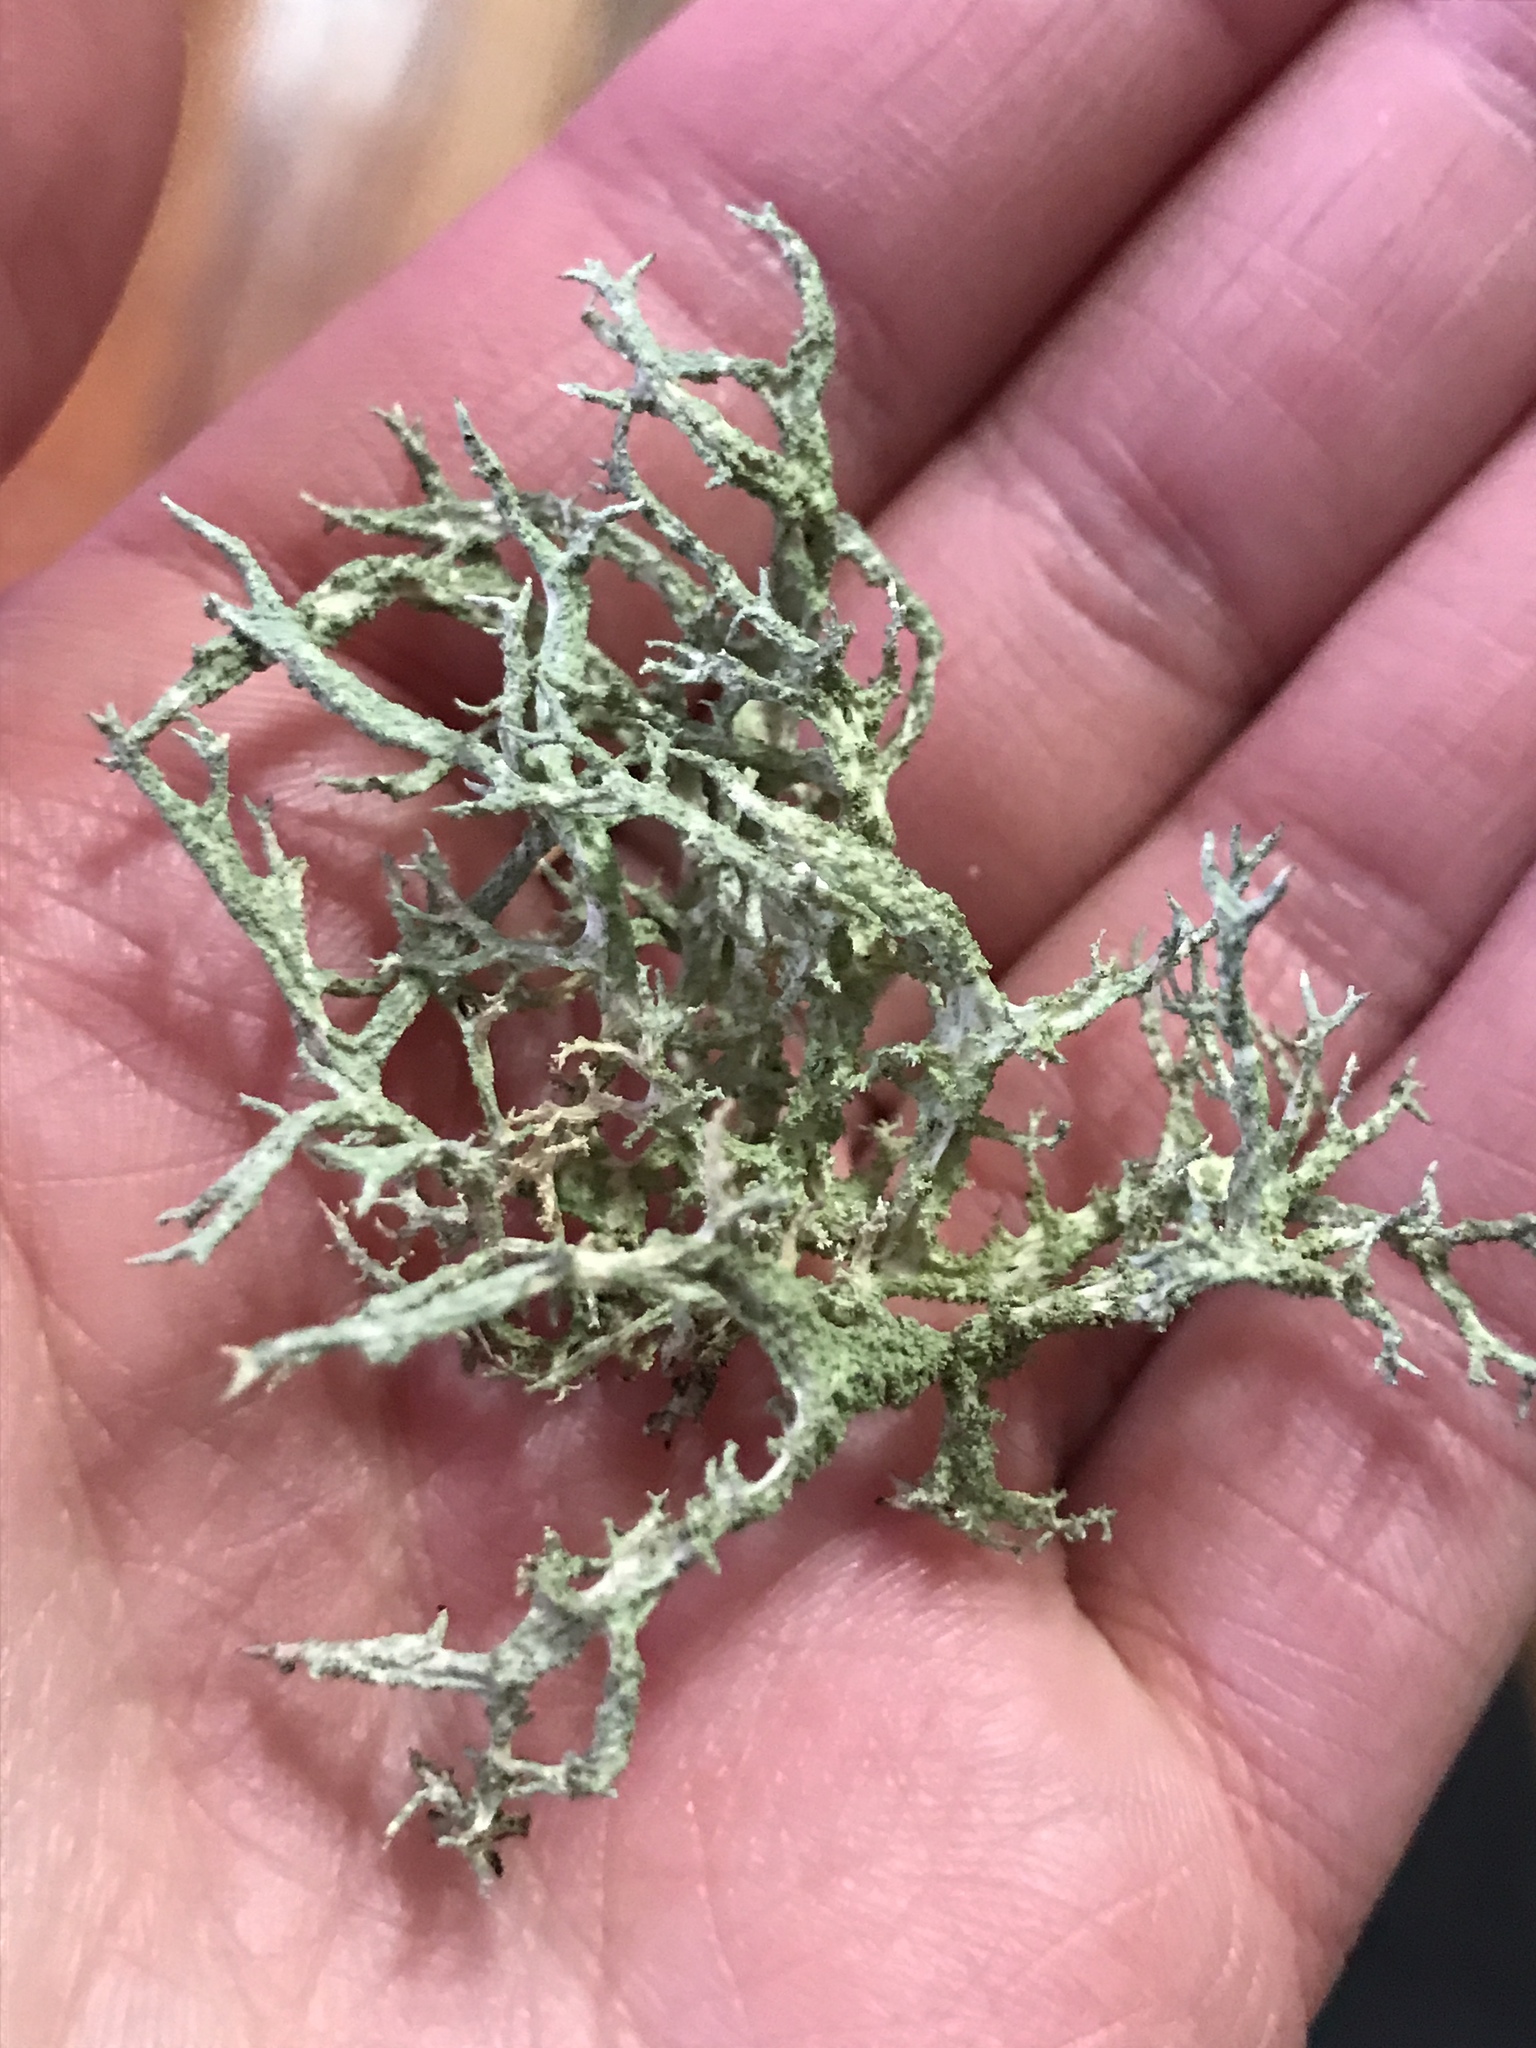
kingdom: Fungi
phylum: Ascomycota
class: Lecanoromycetes
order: Lecanorales
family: Parmeliaceae
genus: Evernia
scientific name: Evernia mesomorpha
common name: Boreal oak moss lichen
